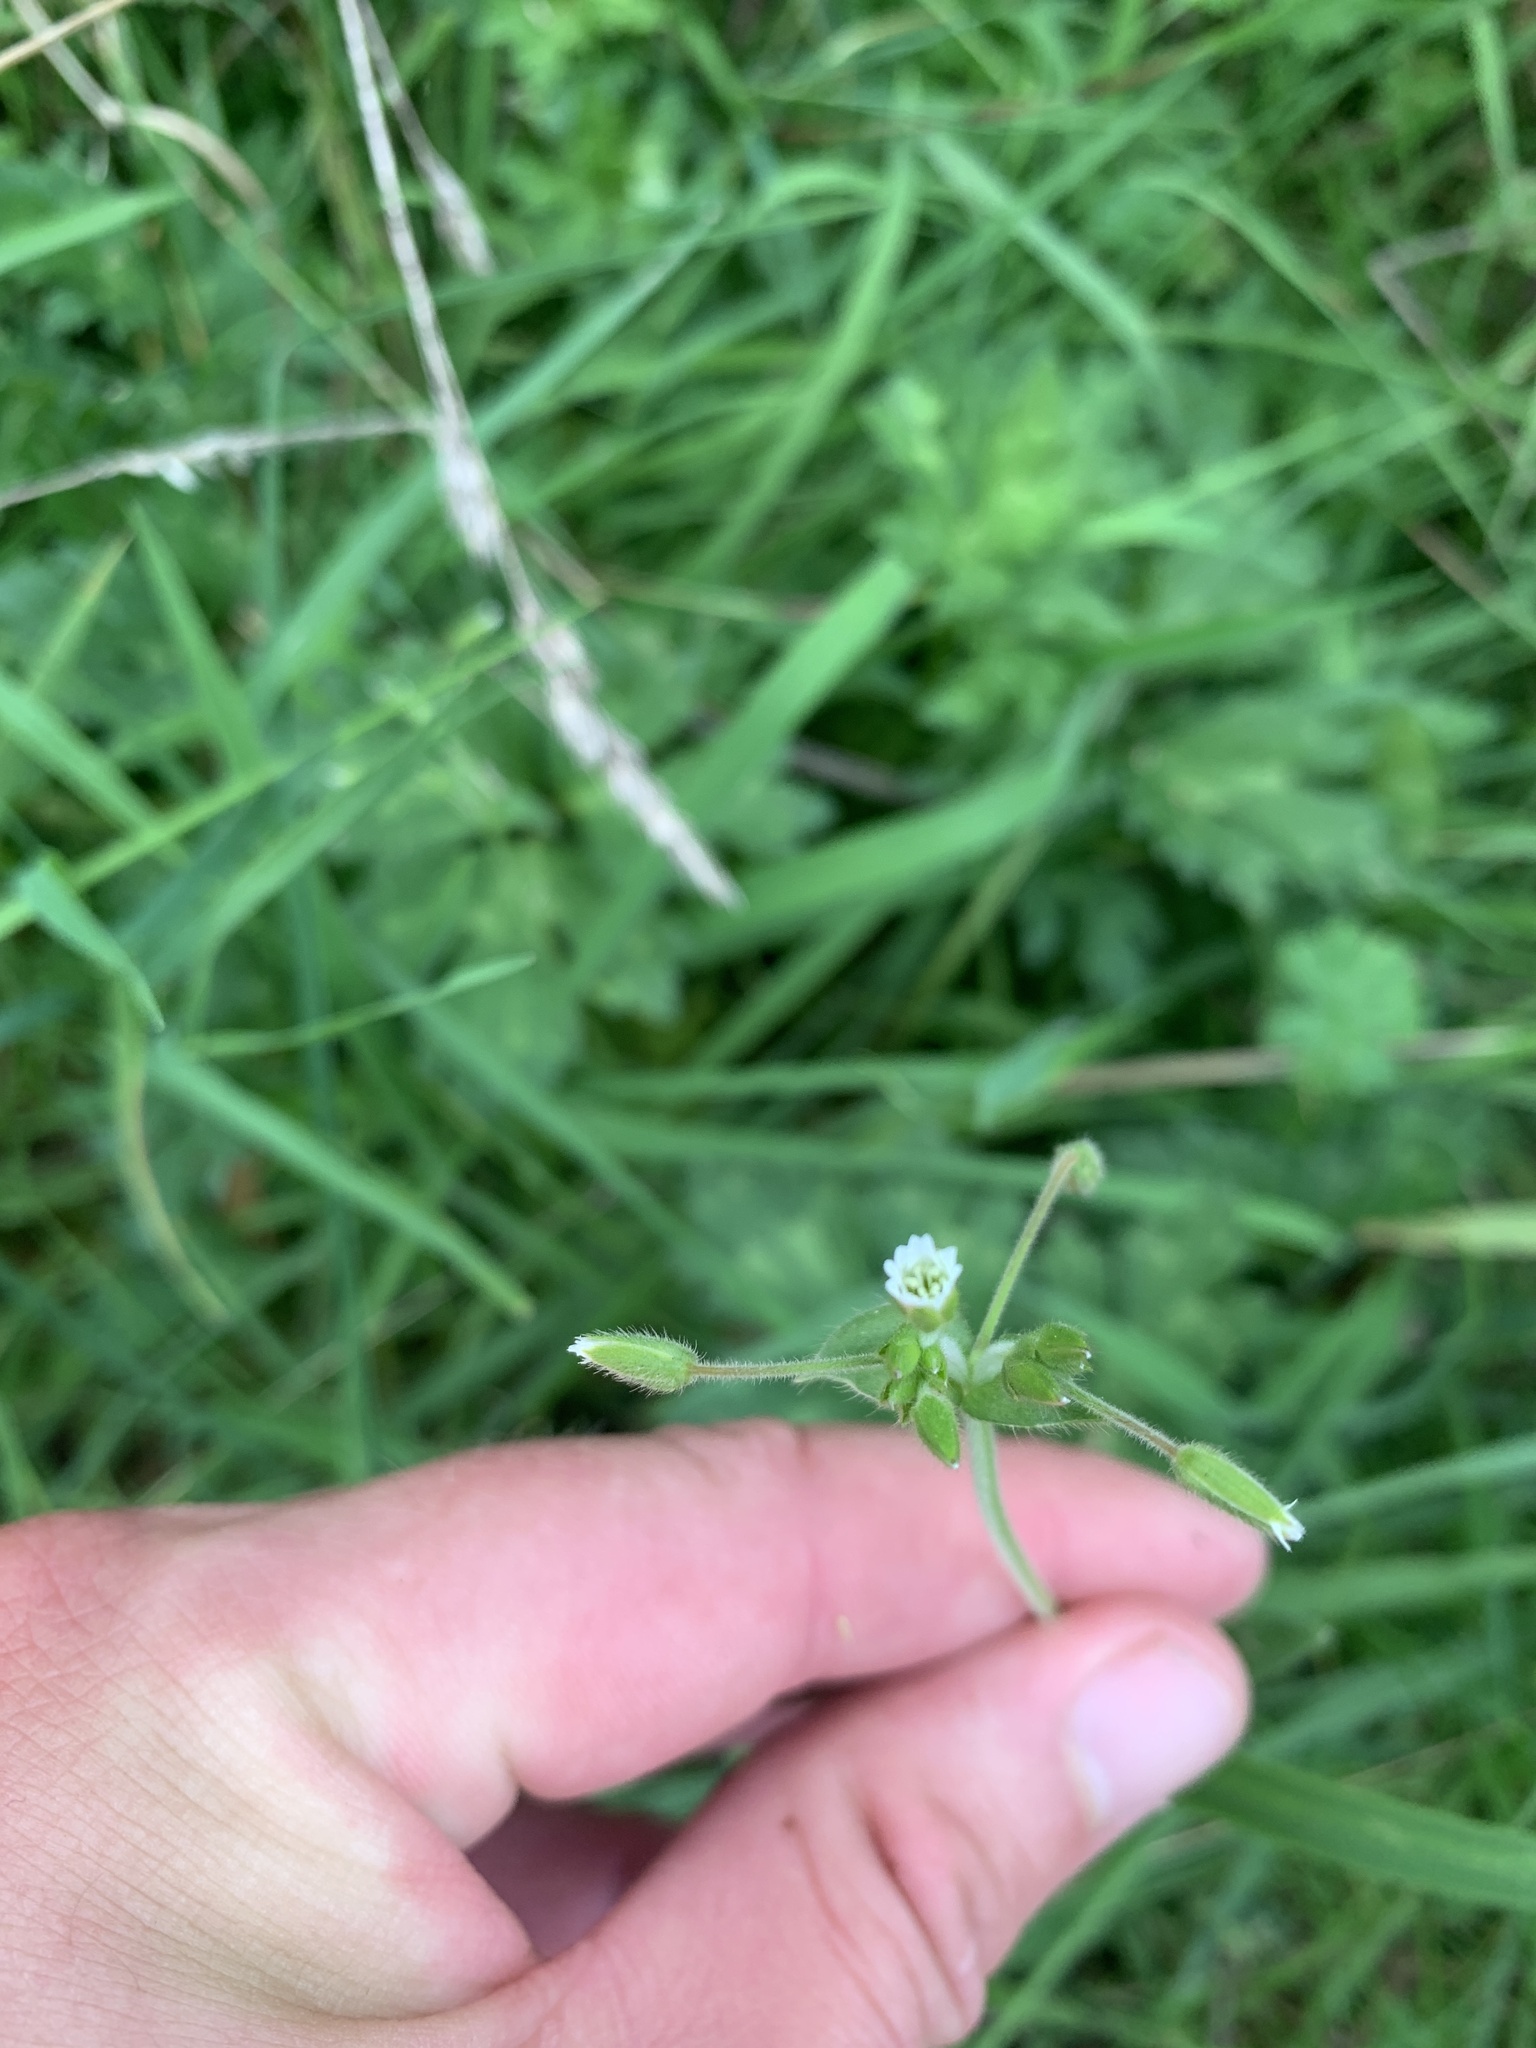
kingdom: Plantae
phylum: Tracheophyta
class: Magnoliopsida
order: Caryophyllales
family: Caryophyllaceae
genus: Cerastium
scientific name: Cerastium fontanum
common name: Common mouse-ear
